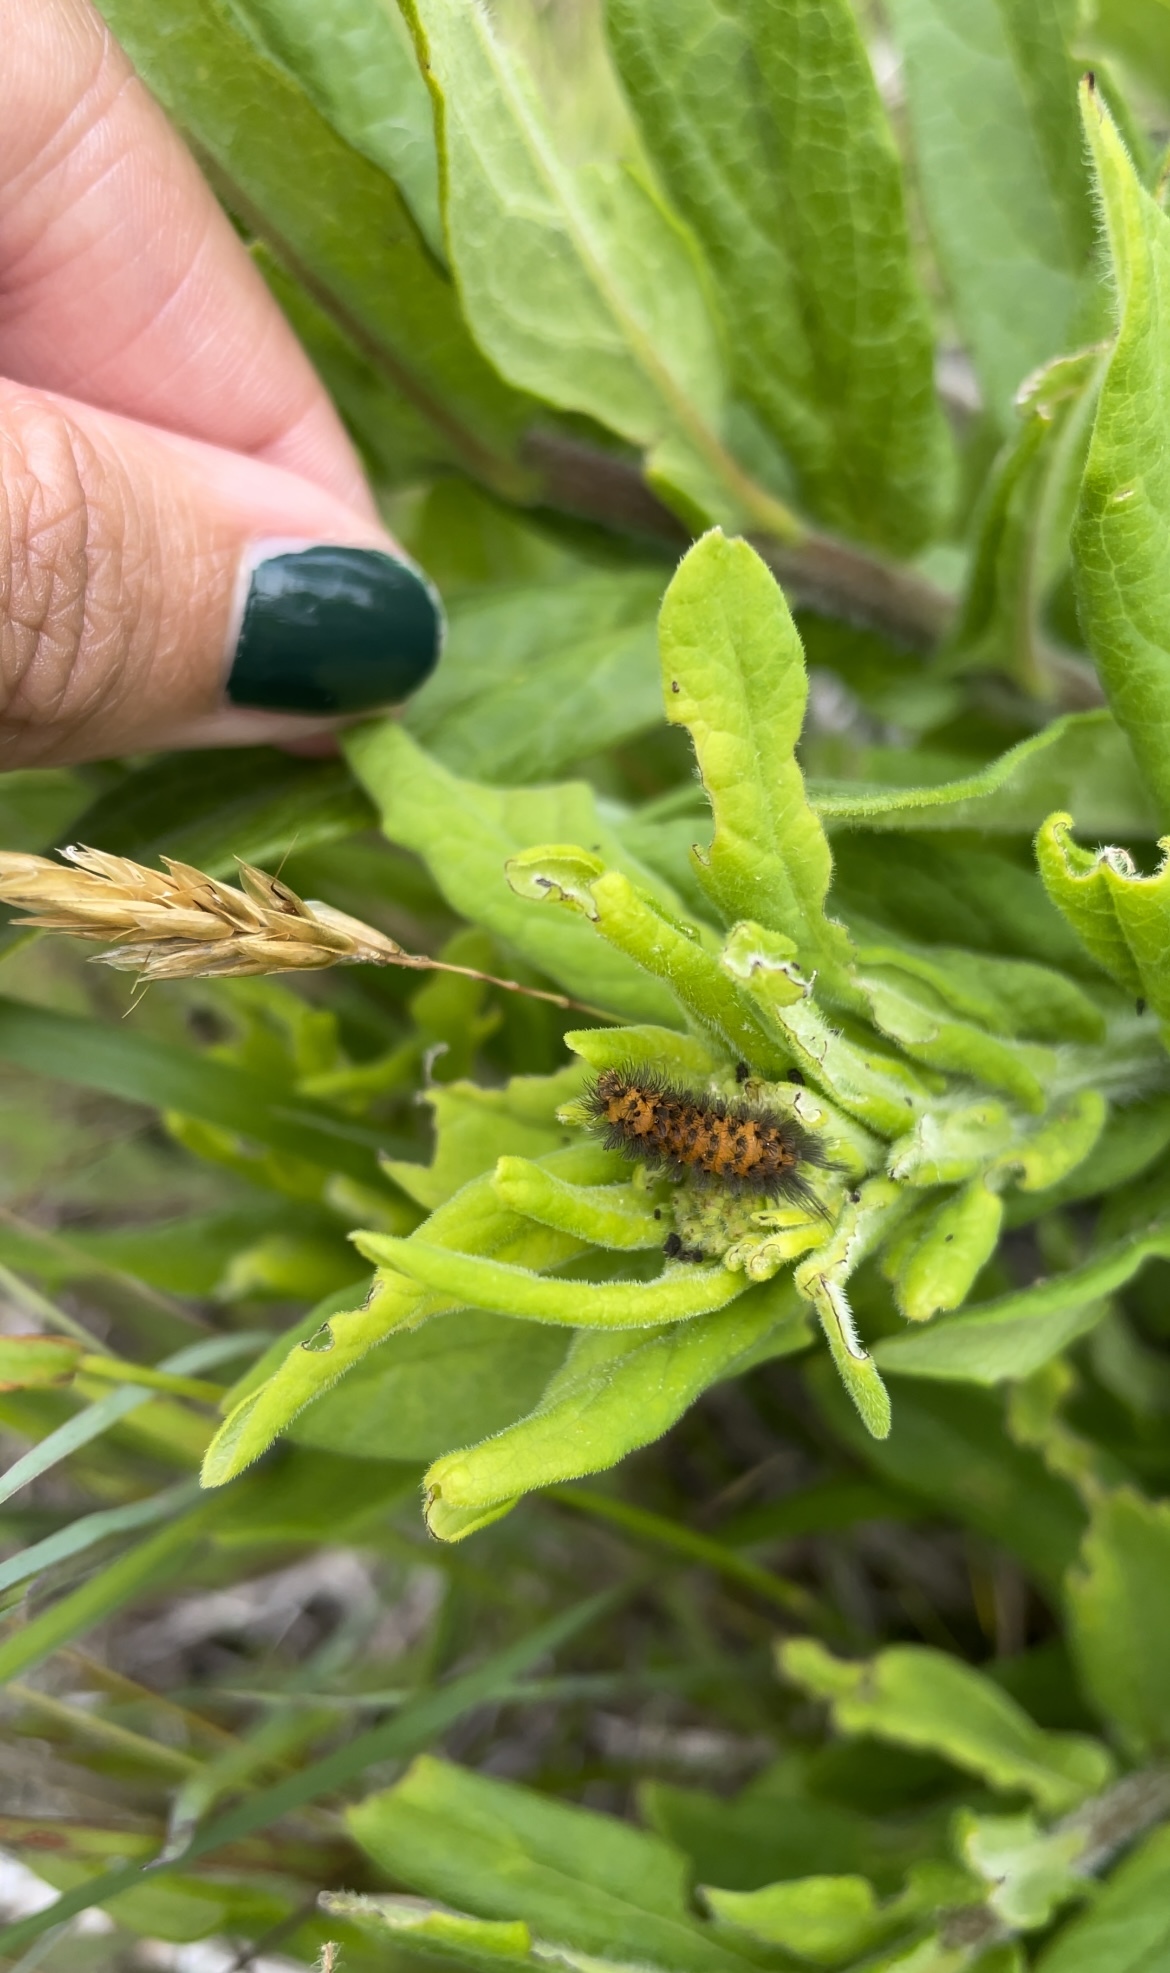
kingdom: Animalia
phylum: Arthropoda
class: Insecta
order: Lepidoptera
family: Erebidae
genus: Cycnia
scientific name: Cycnia collaris
